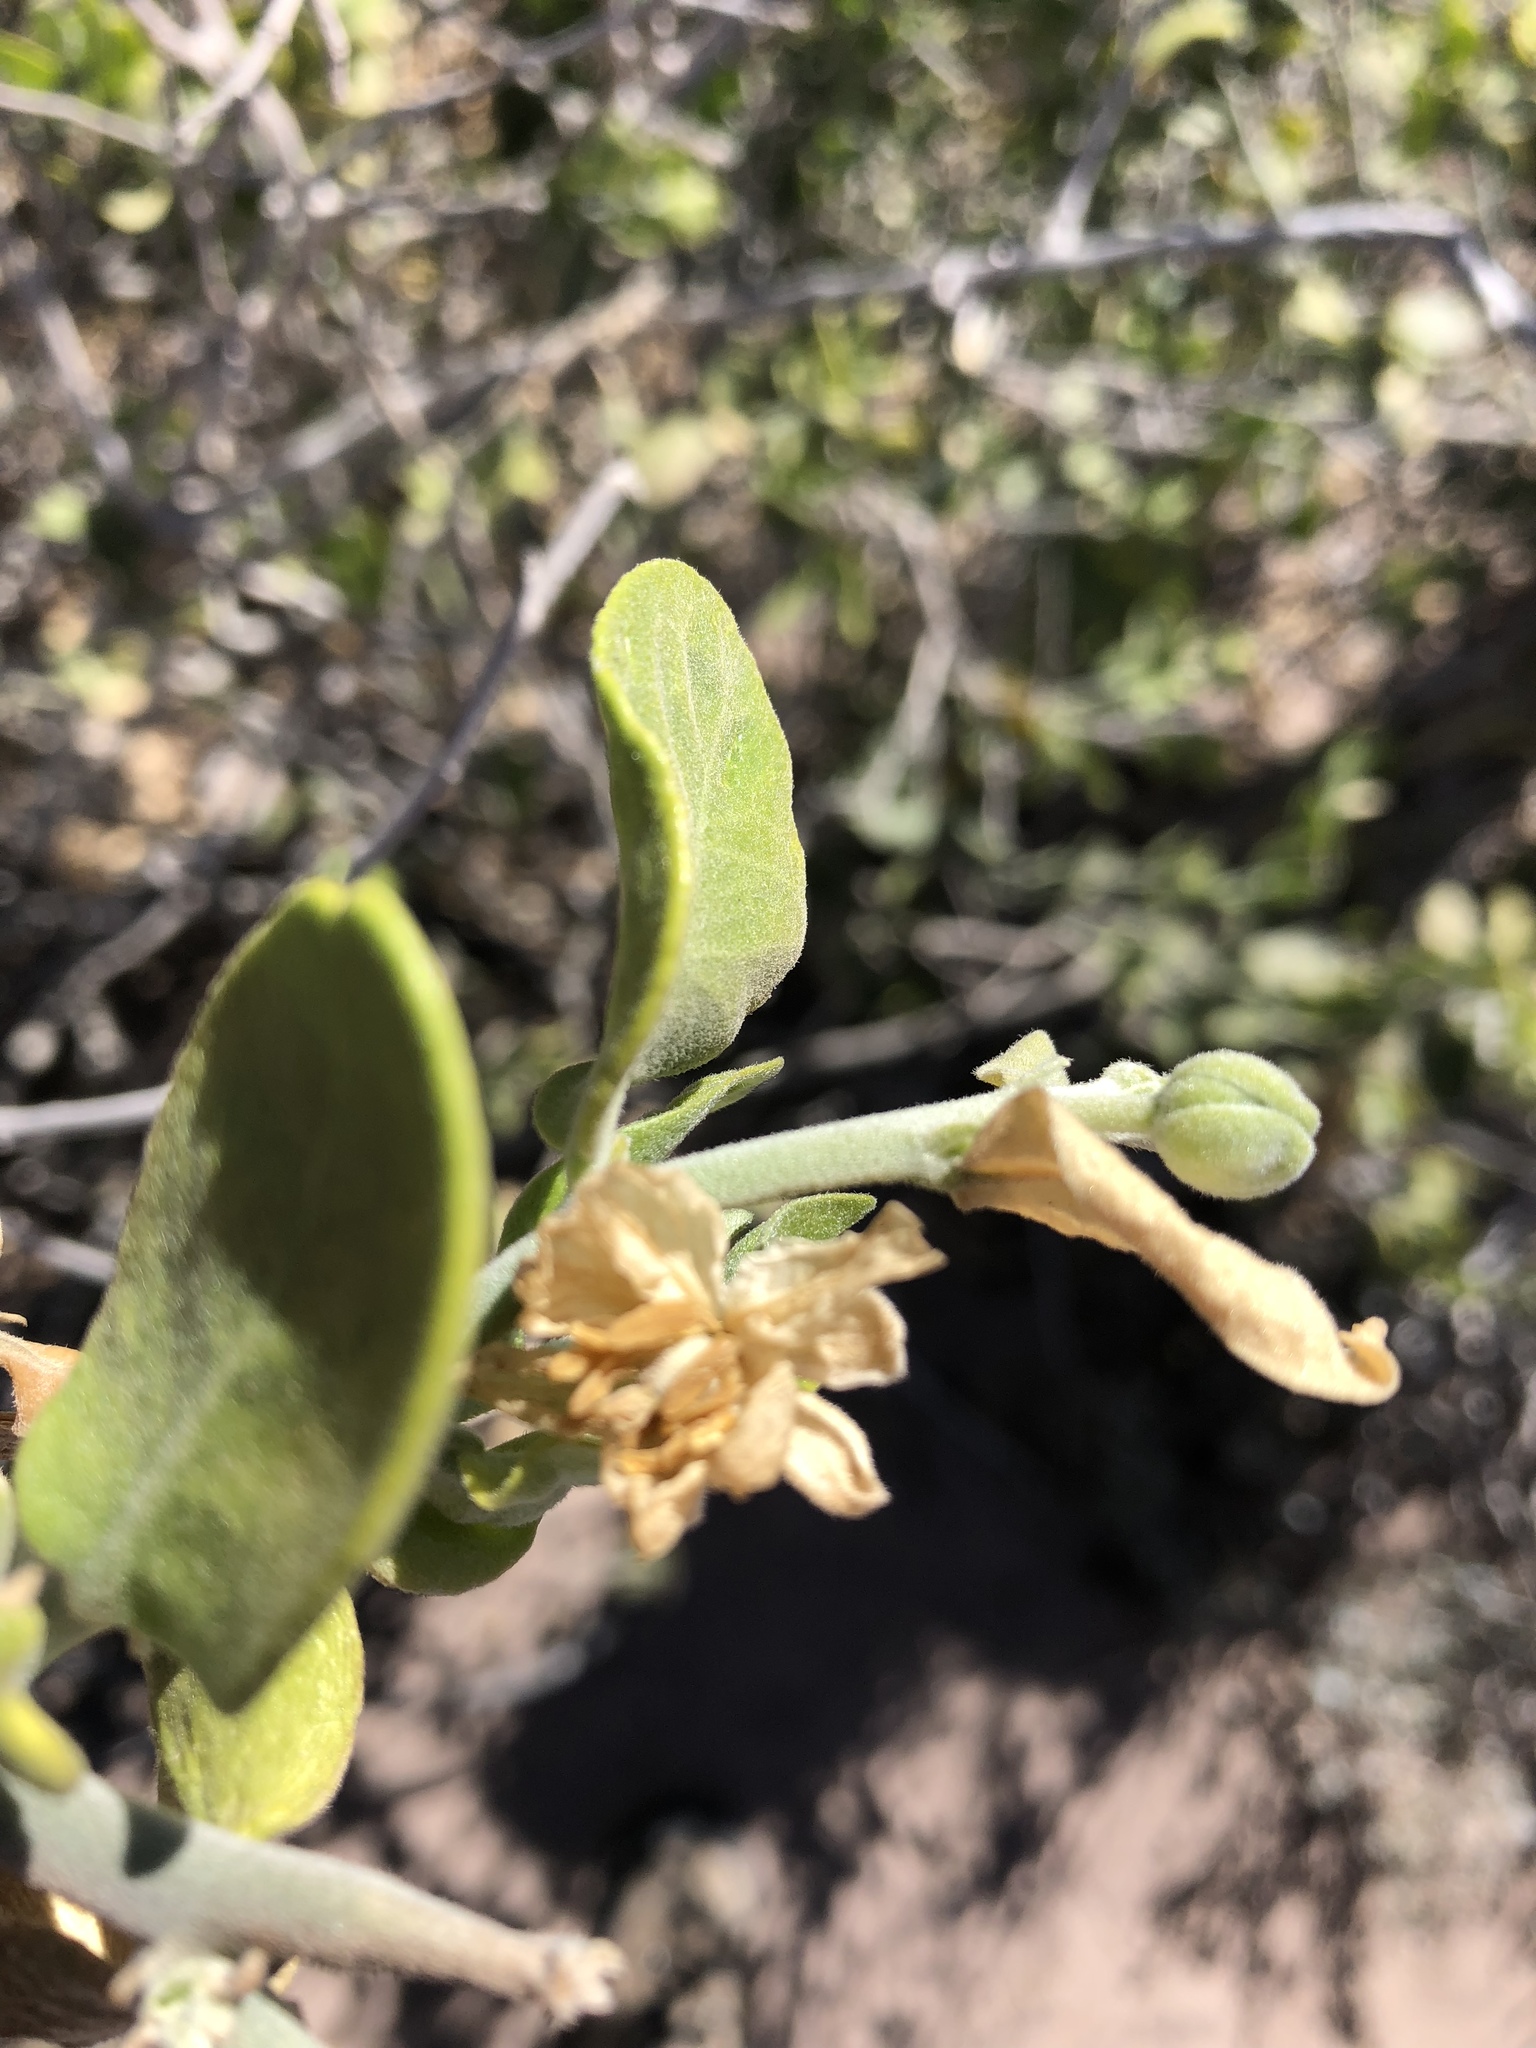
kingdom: Plantae
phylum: Tracheophyta
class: Magnoliopsida
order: Zygophyllales
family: Zygophyllaceae
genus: Viscainoa
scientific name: Viscainoa geniculata
